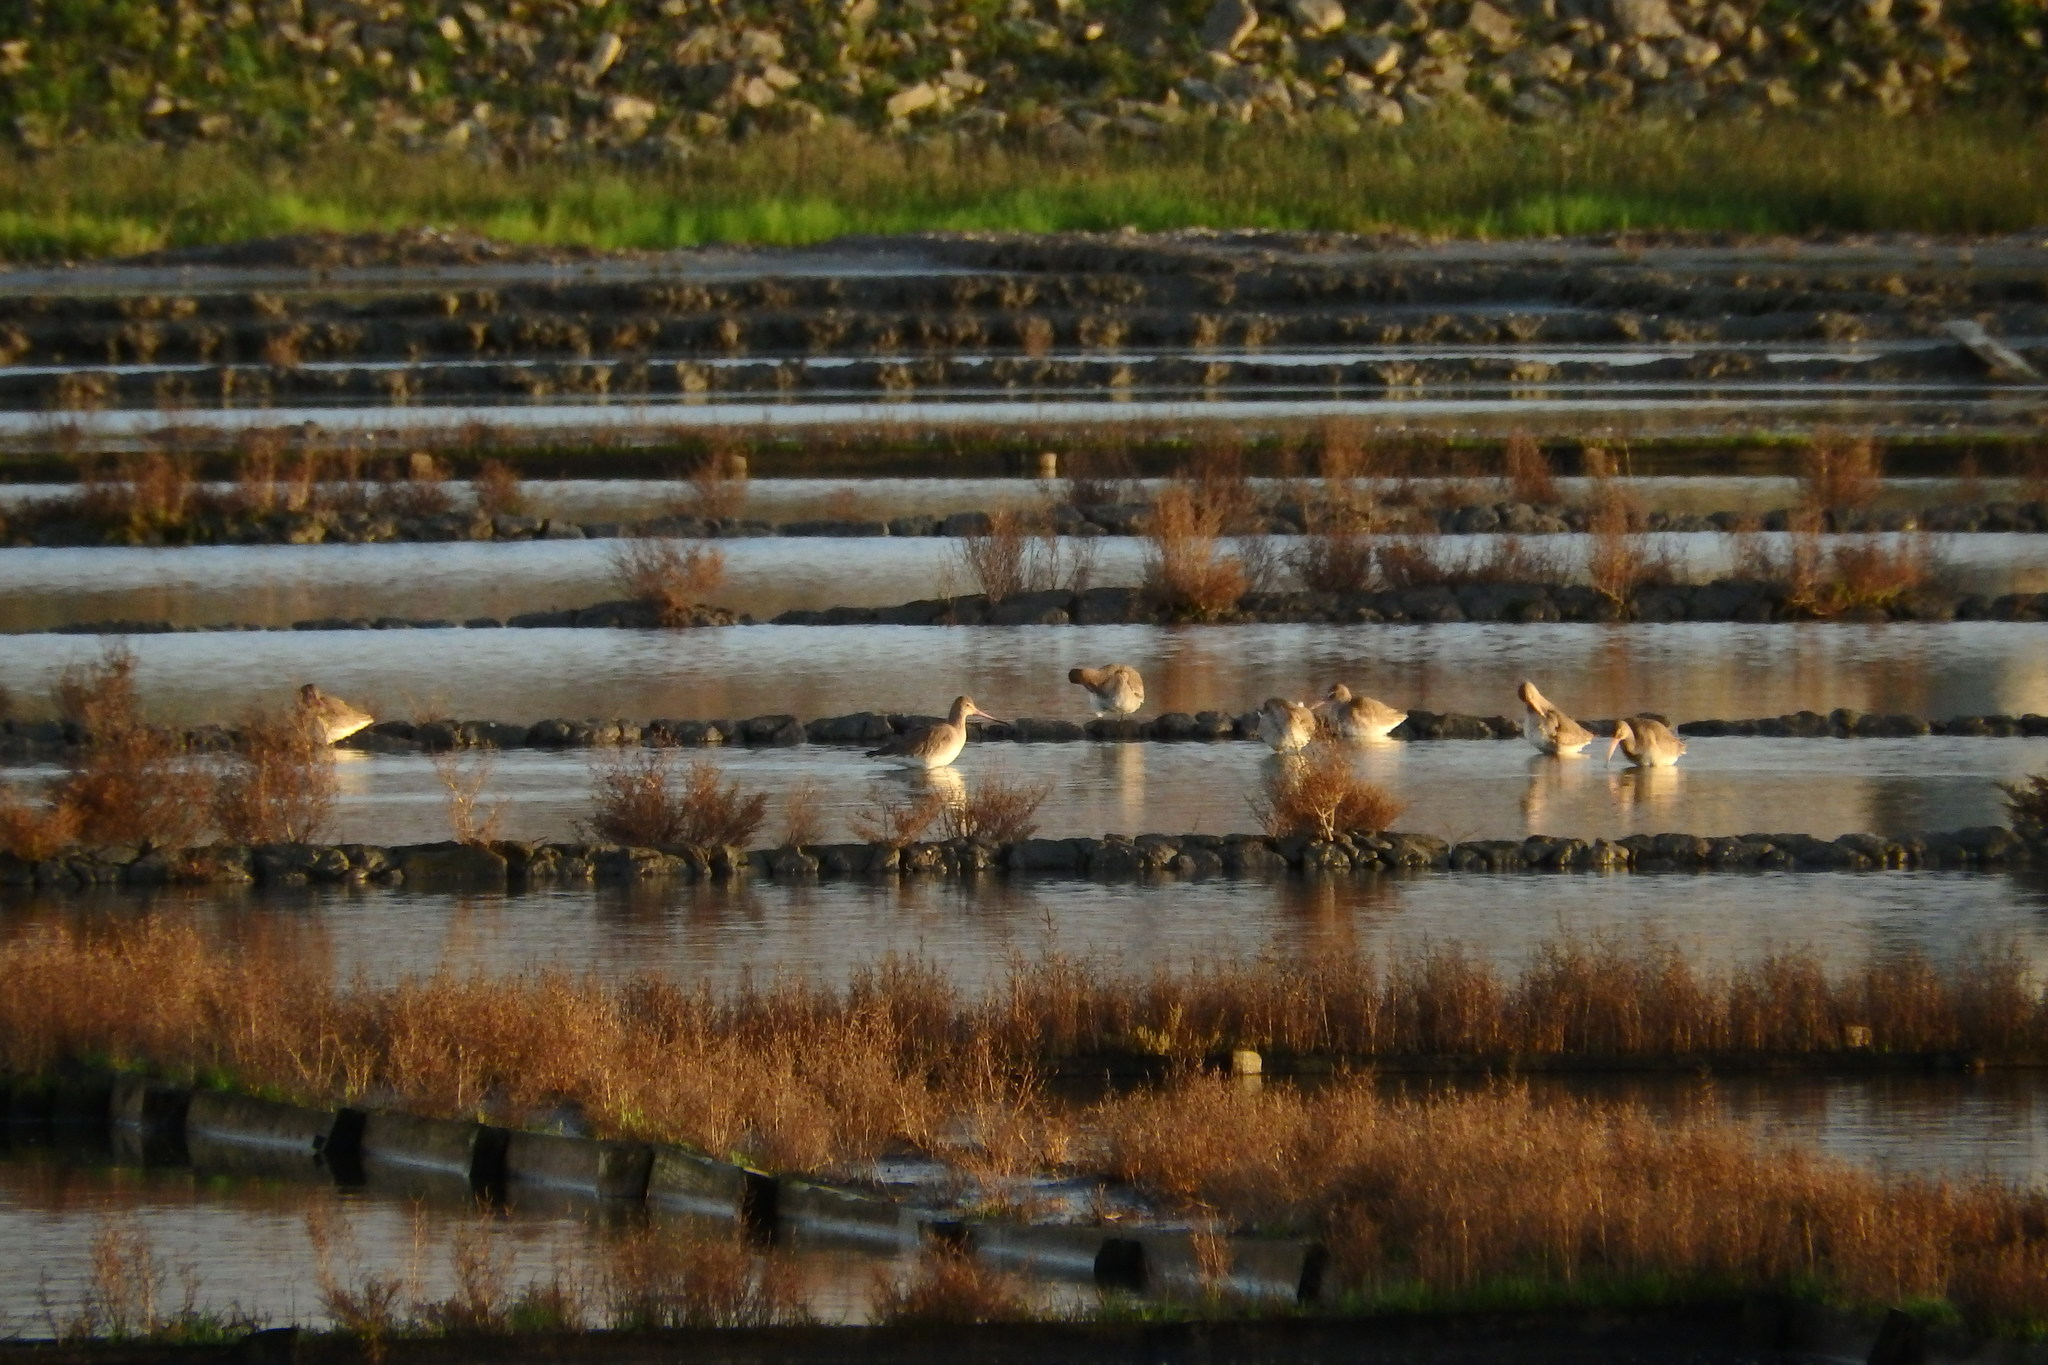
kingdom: Animalia
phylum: Chordata
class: Aves
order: Charadriiformes
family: Scolopacidae
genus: Limosa
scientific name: Limosa limosa
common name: Black-tailed godwit
